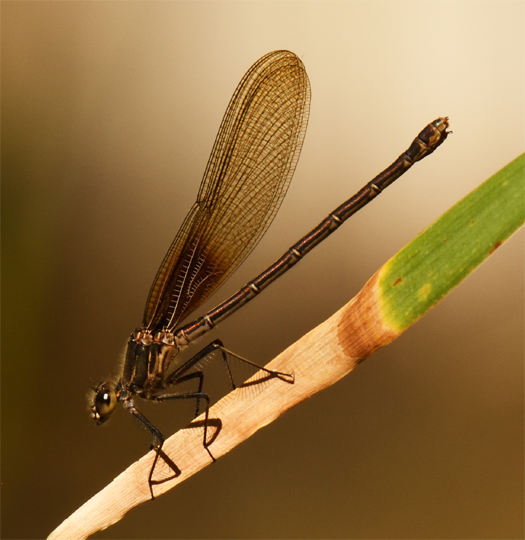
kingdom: Animalia
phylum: Arthropoda
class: Insecta
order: Odonata
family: Calopterygidae
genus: Hetaerina
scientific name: Hetaerina americana
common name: American rubyspot
